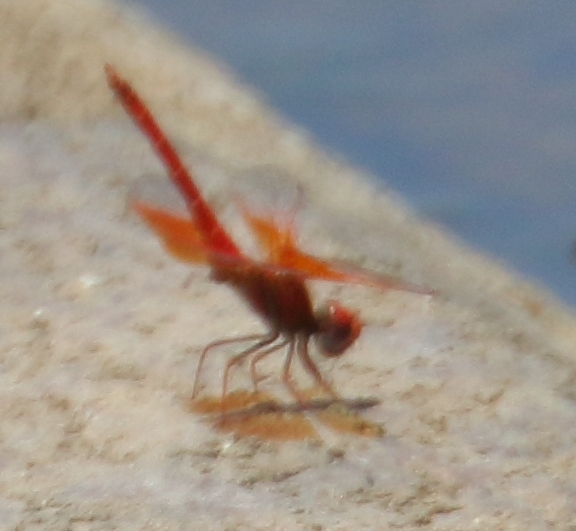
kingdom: Animalia
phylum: Arthropoda
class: Insecta
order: Odonata
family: Libellulidae
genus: Trithemis
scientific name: Trithemis kirbyi
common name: Kirby's dropwing
